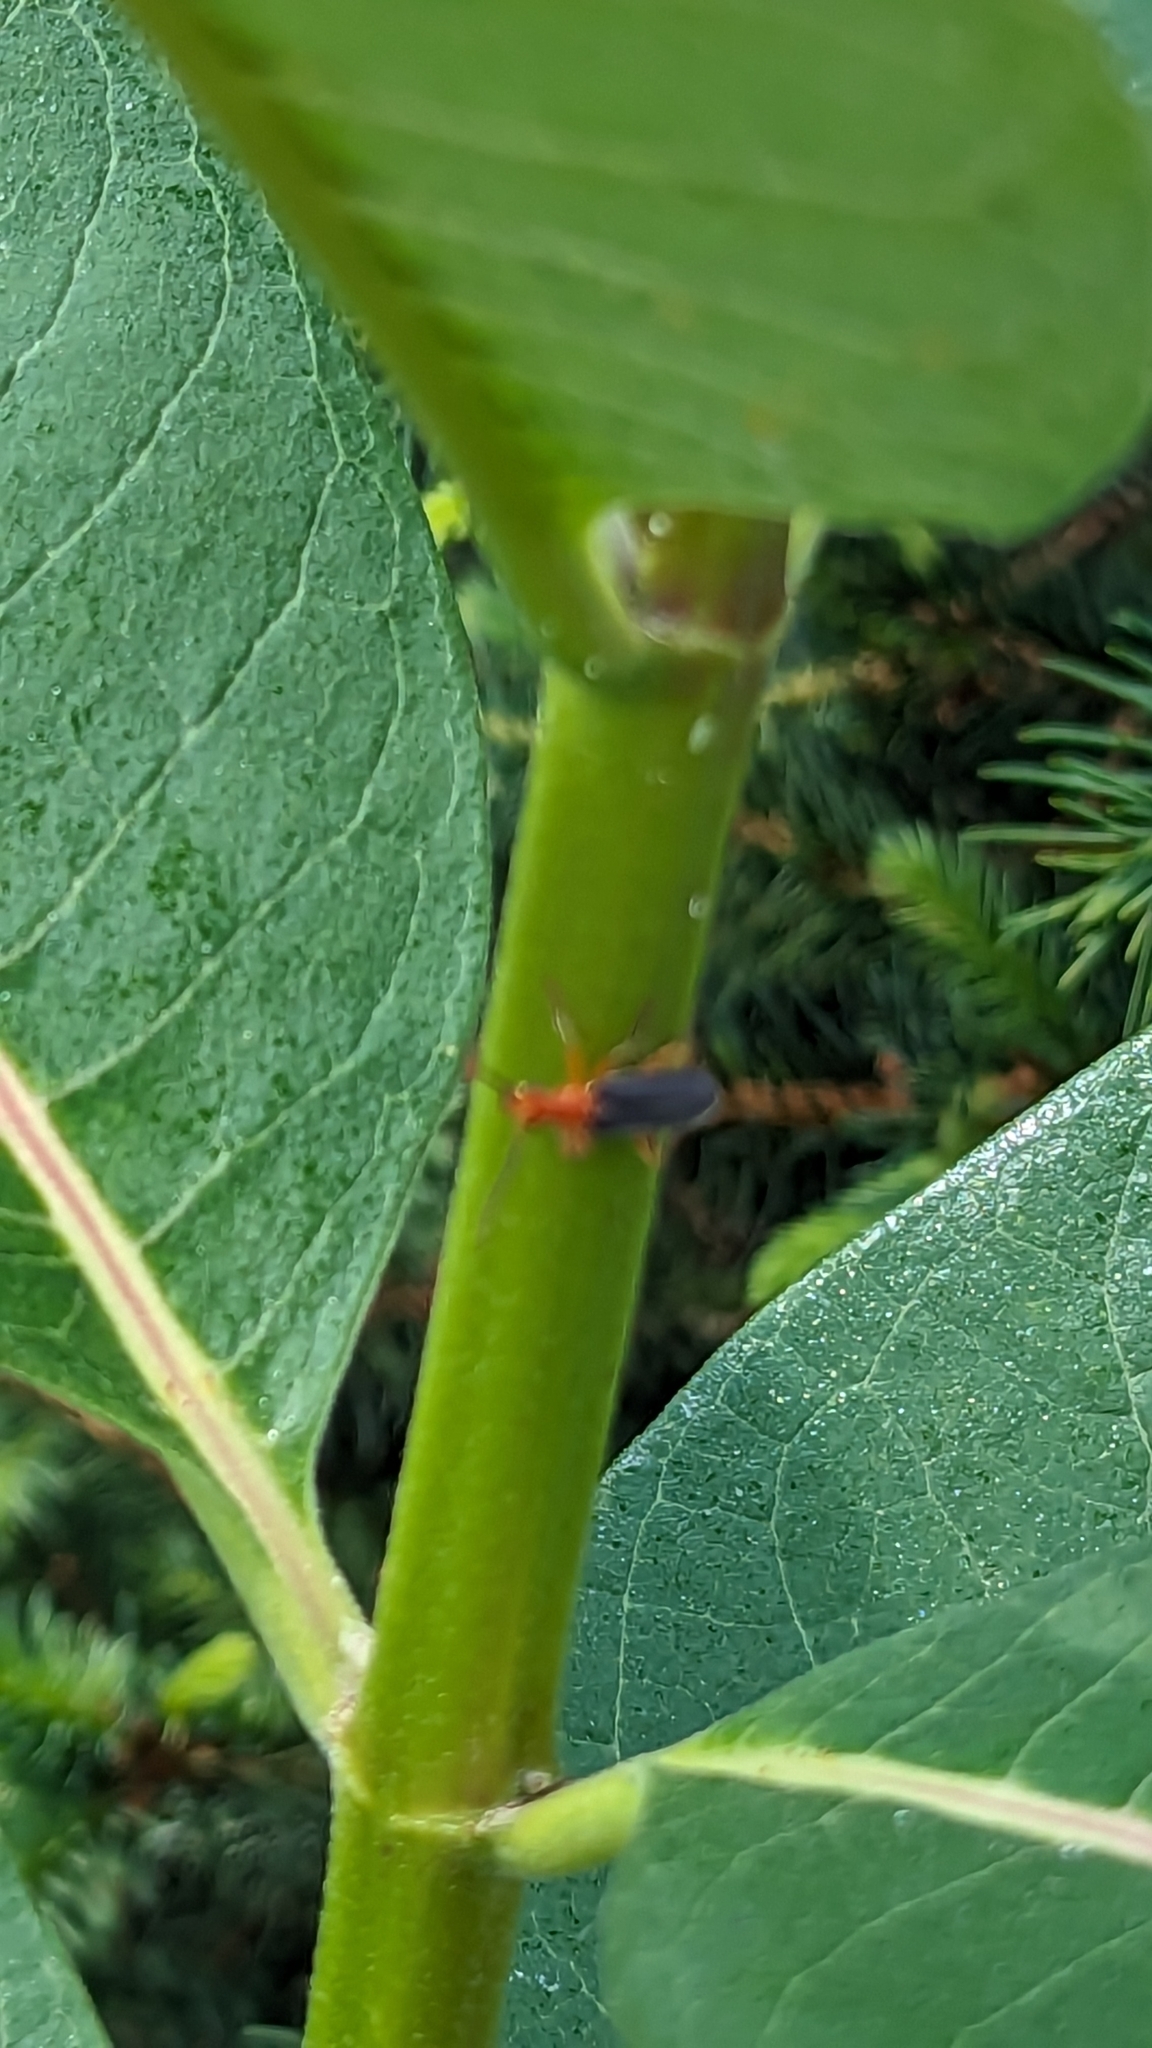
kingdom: Animalia
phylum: Arthropoda
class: Insecta
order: Coleoptera
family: Cantharidae
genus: Podabrus
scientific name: Podabrus tomentosus
